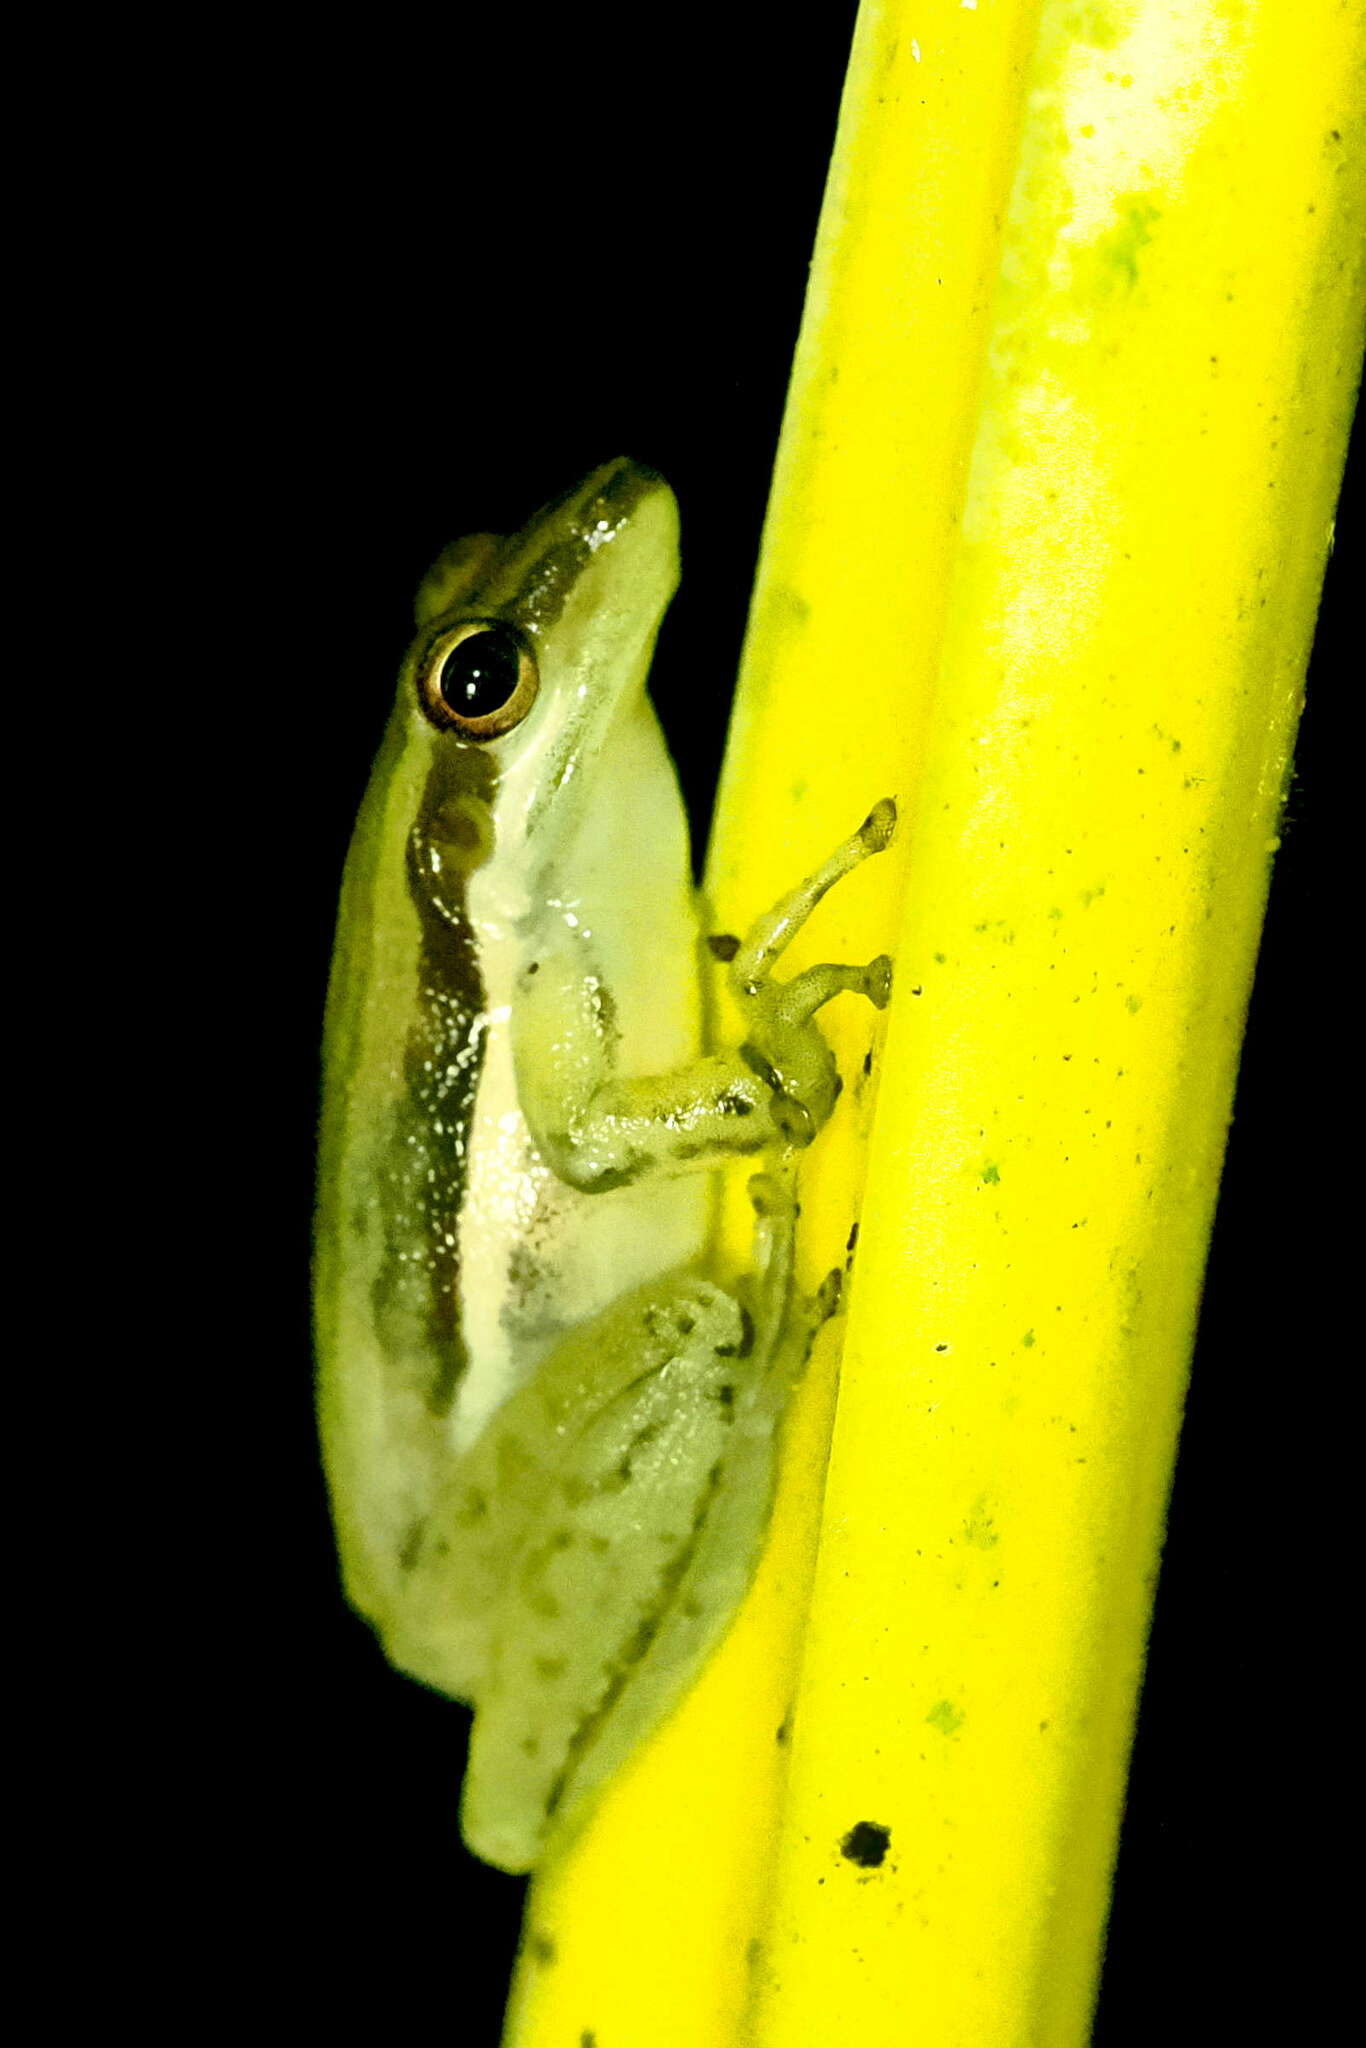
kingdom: Animalia
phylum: Chordata
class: Amphibia
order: Anura
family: Hylidae
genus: Scarthyla
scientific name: Scarthyla vigilans
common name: Maracaibo basin treefrog
